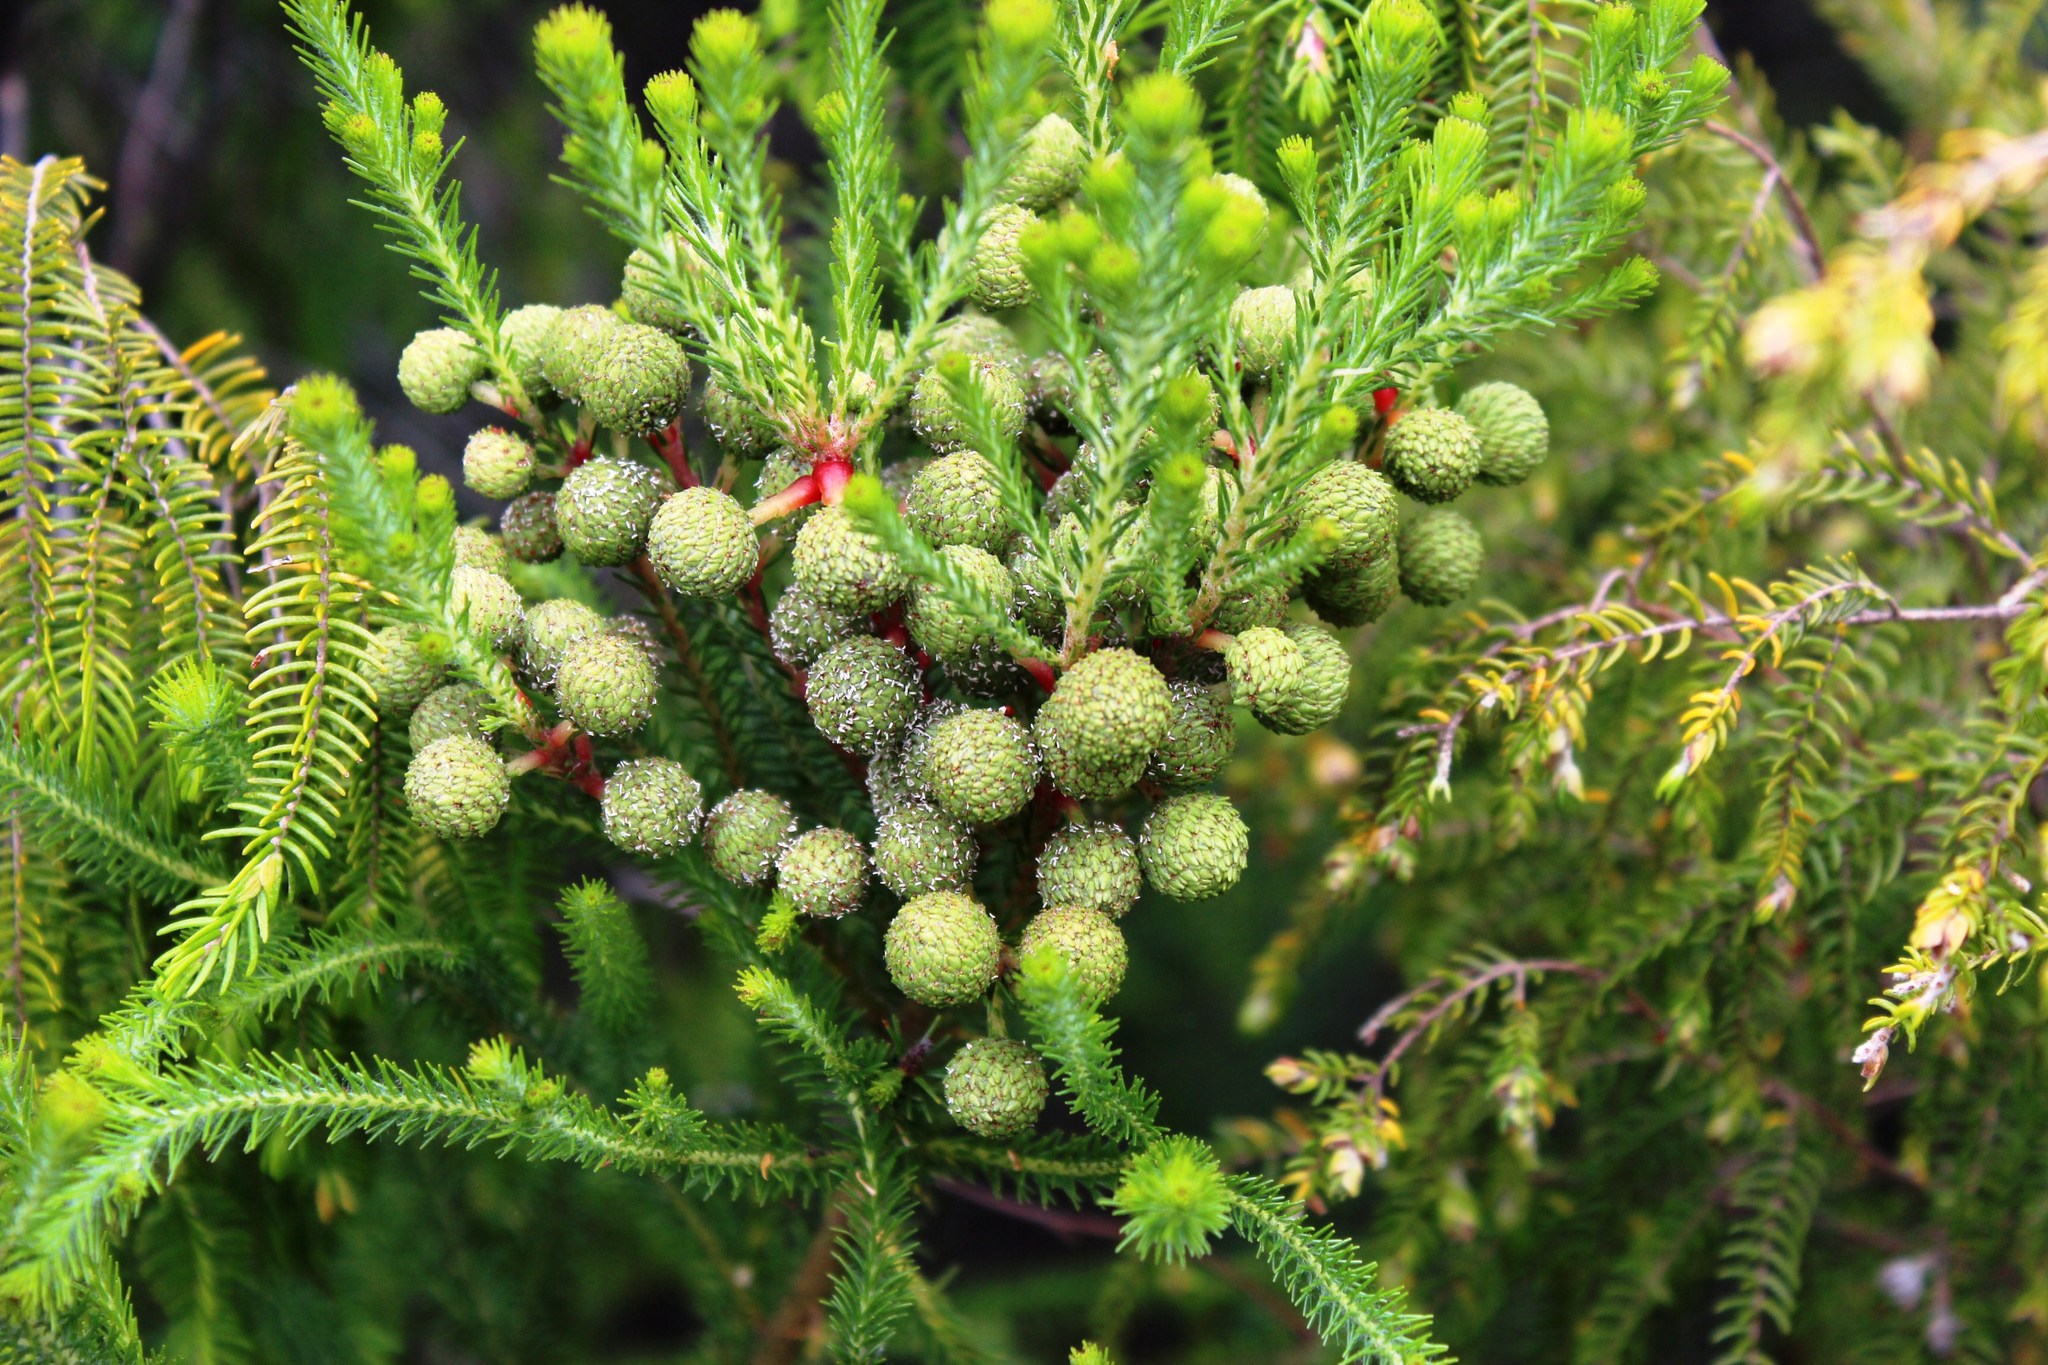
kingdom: Plantae
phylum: Tracheophyta
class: Magnoliopsida
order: Bruniales
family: Bruniaceae
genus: Berzelia
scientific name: Berzelia intermedia
